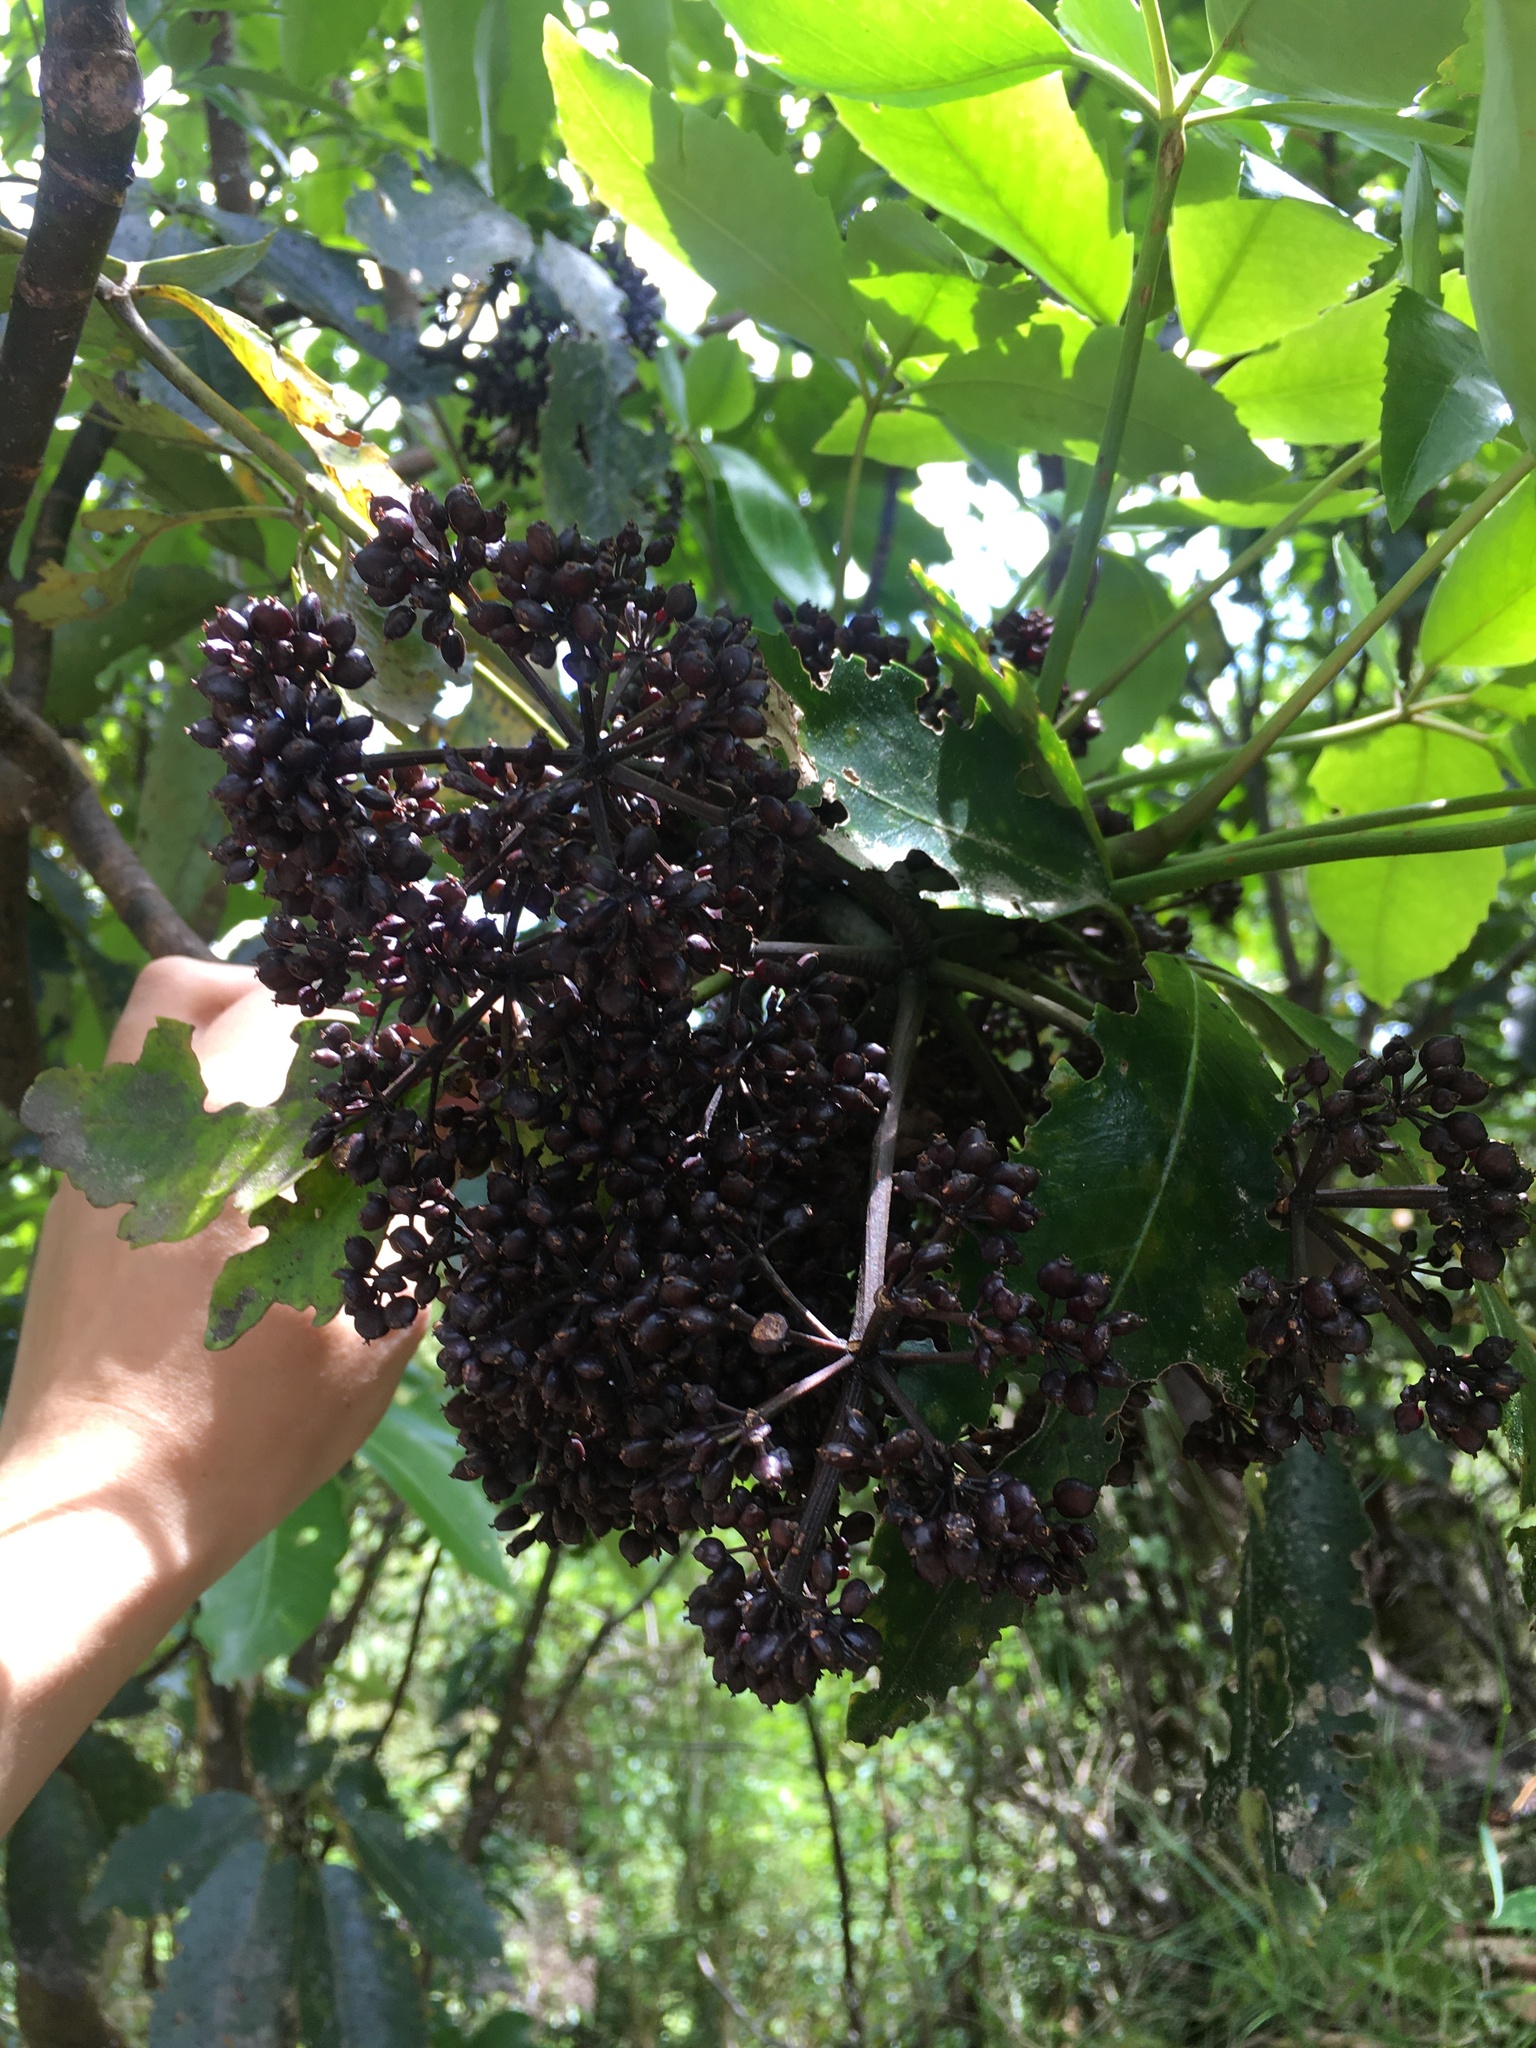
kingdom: Plantae
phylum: Tracheophyta
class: Magnoliopsida
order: Apiales
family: Araliaceae
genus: Neopanax
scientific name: Neopanax arboreus
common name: Five-fingers
